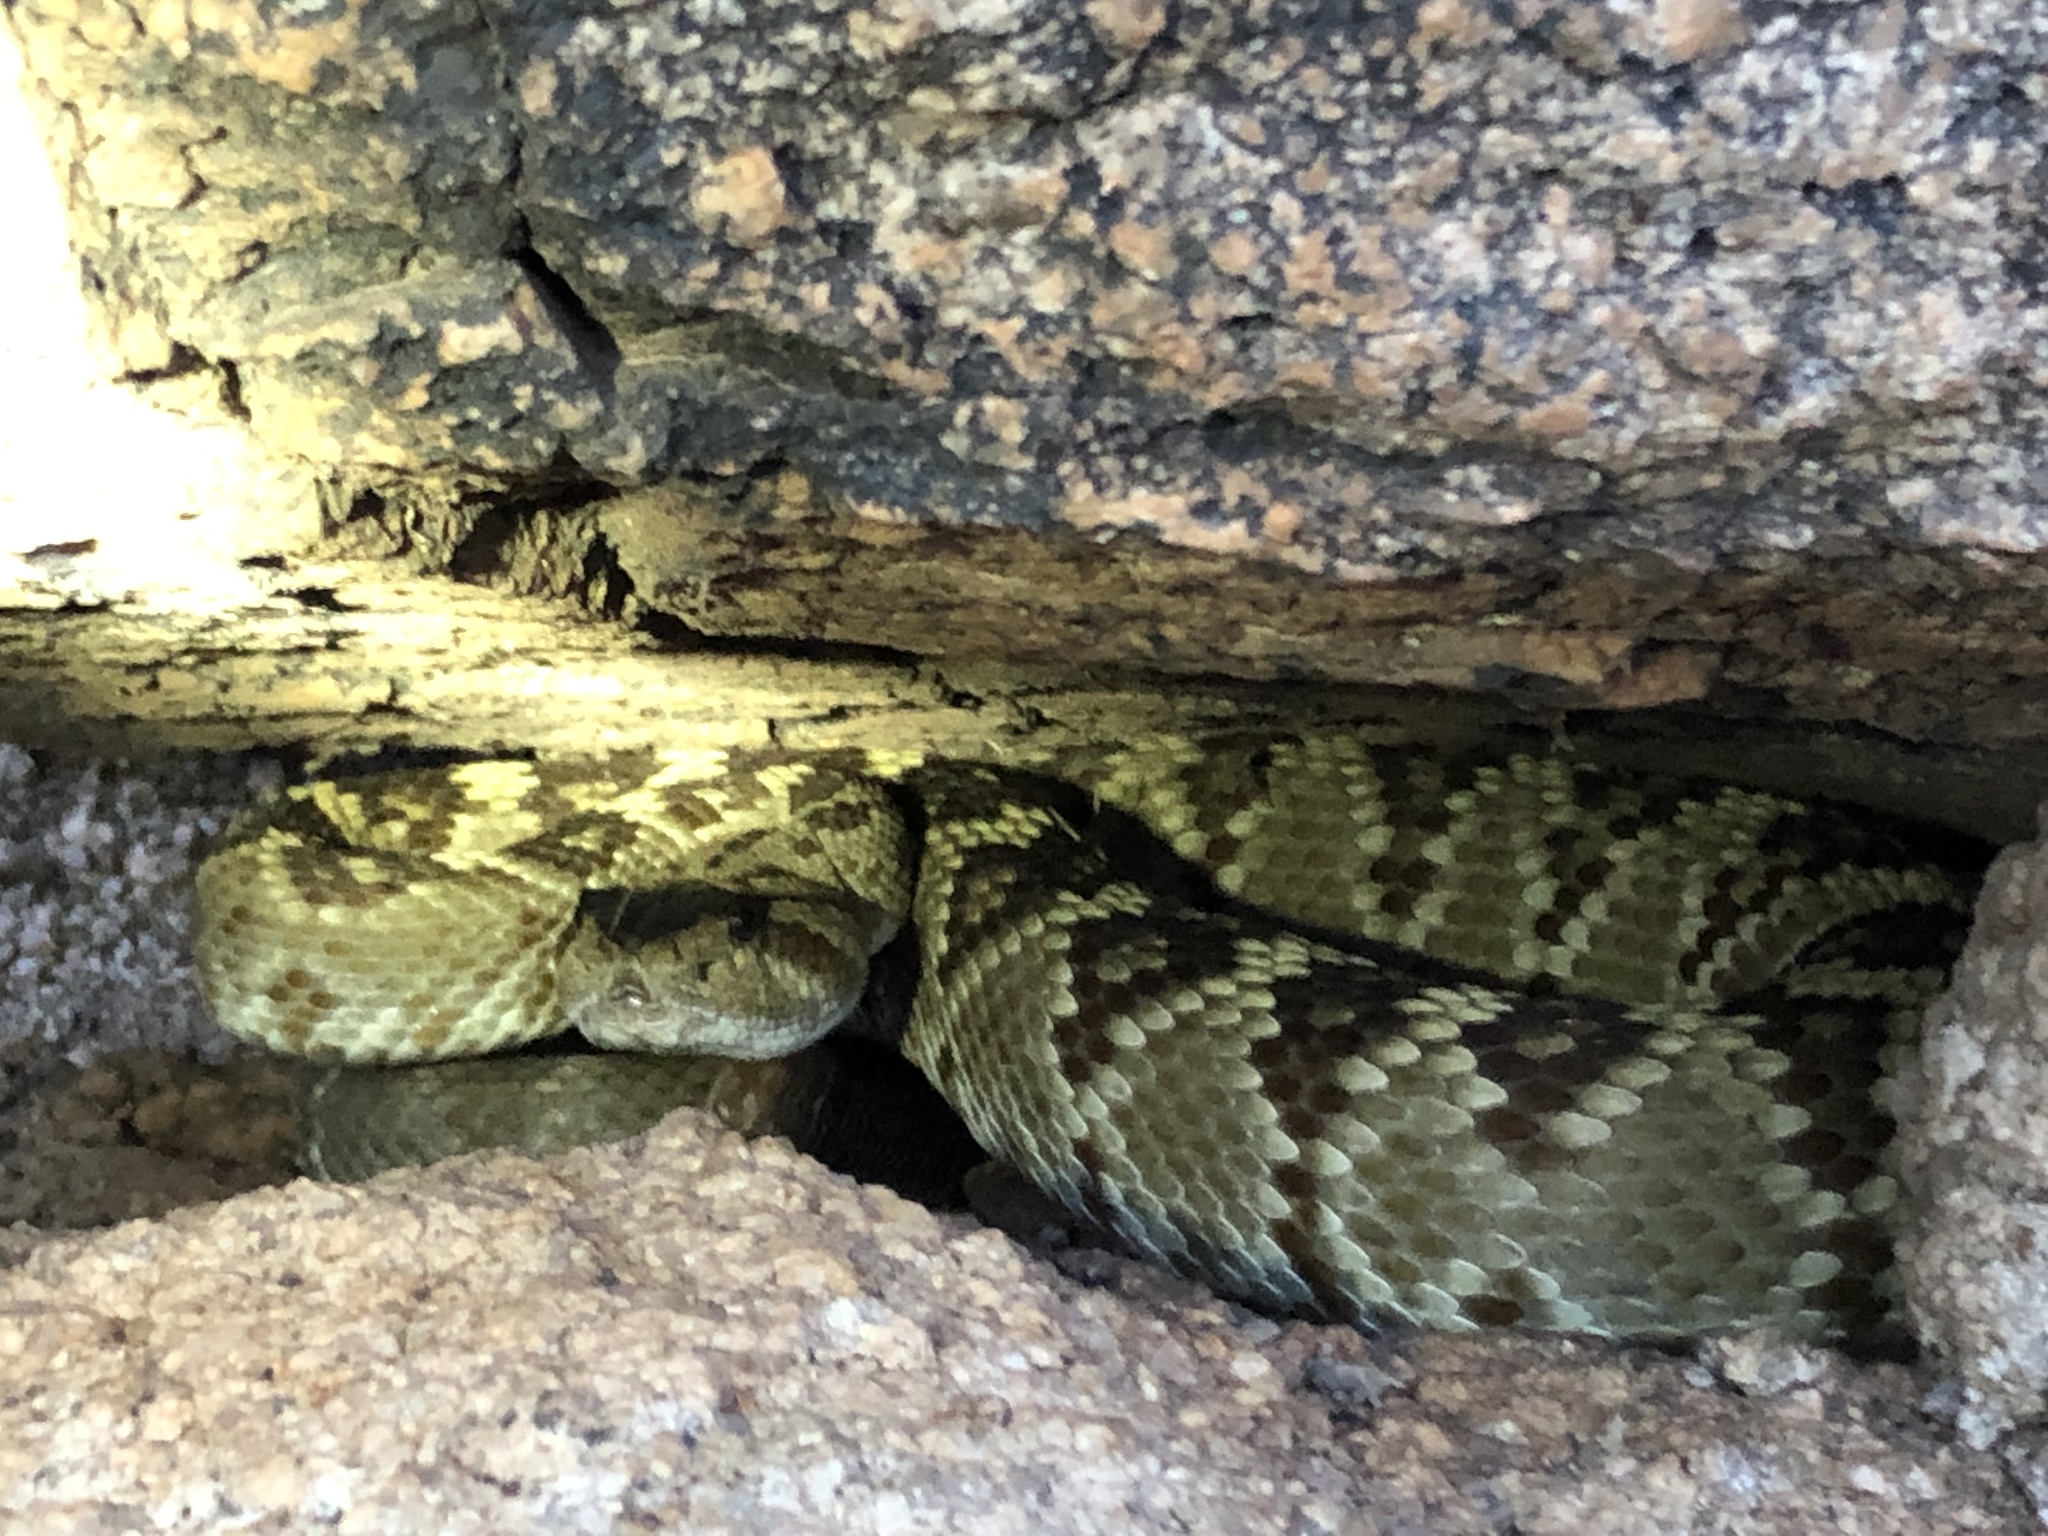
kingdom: Animalia
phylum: Chordata
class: Squamata
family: Viperidae
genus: Crotalus
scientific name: Crotalus molossus
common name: Black tailed rattlesnake
